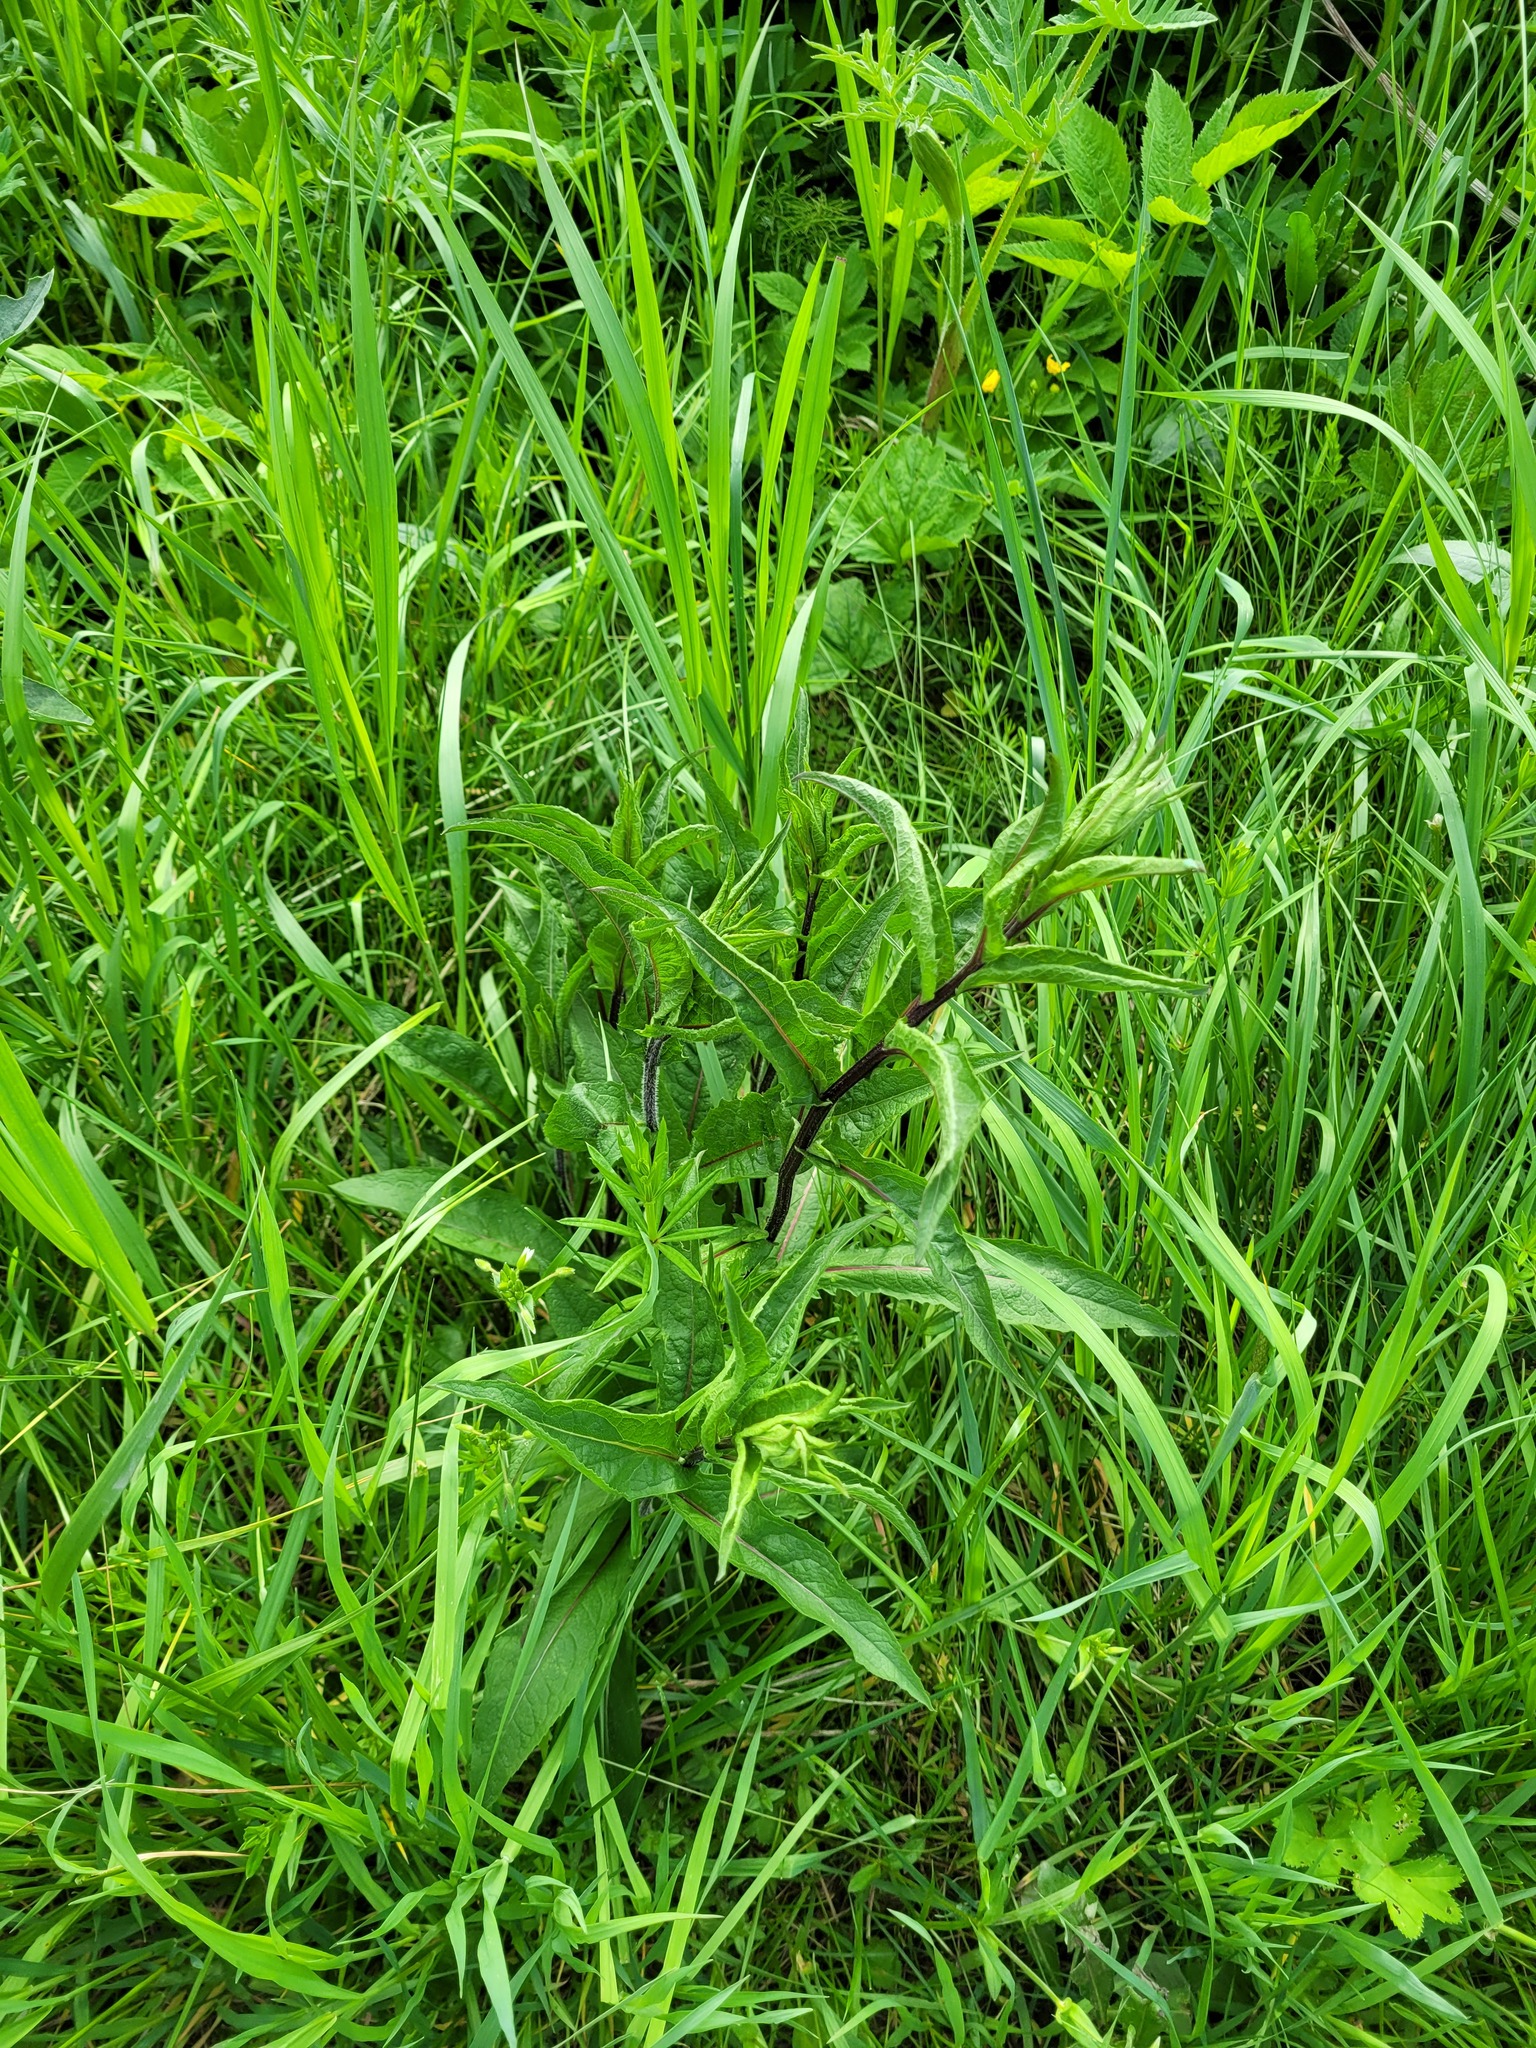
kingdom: Plantae
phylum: Tracheophyta
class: Magnoliopsida
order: Asterales
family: Asteraceae
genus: Centaurea
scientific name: Centaurea pseudophrygia
